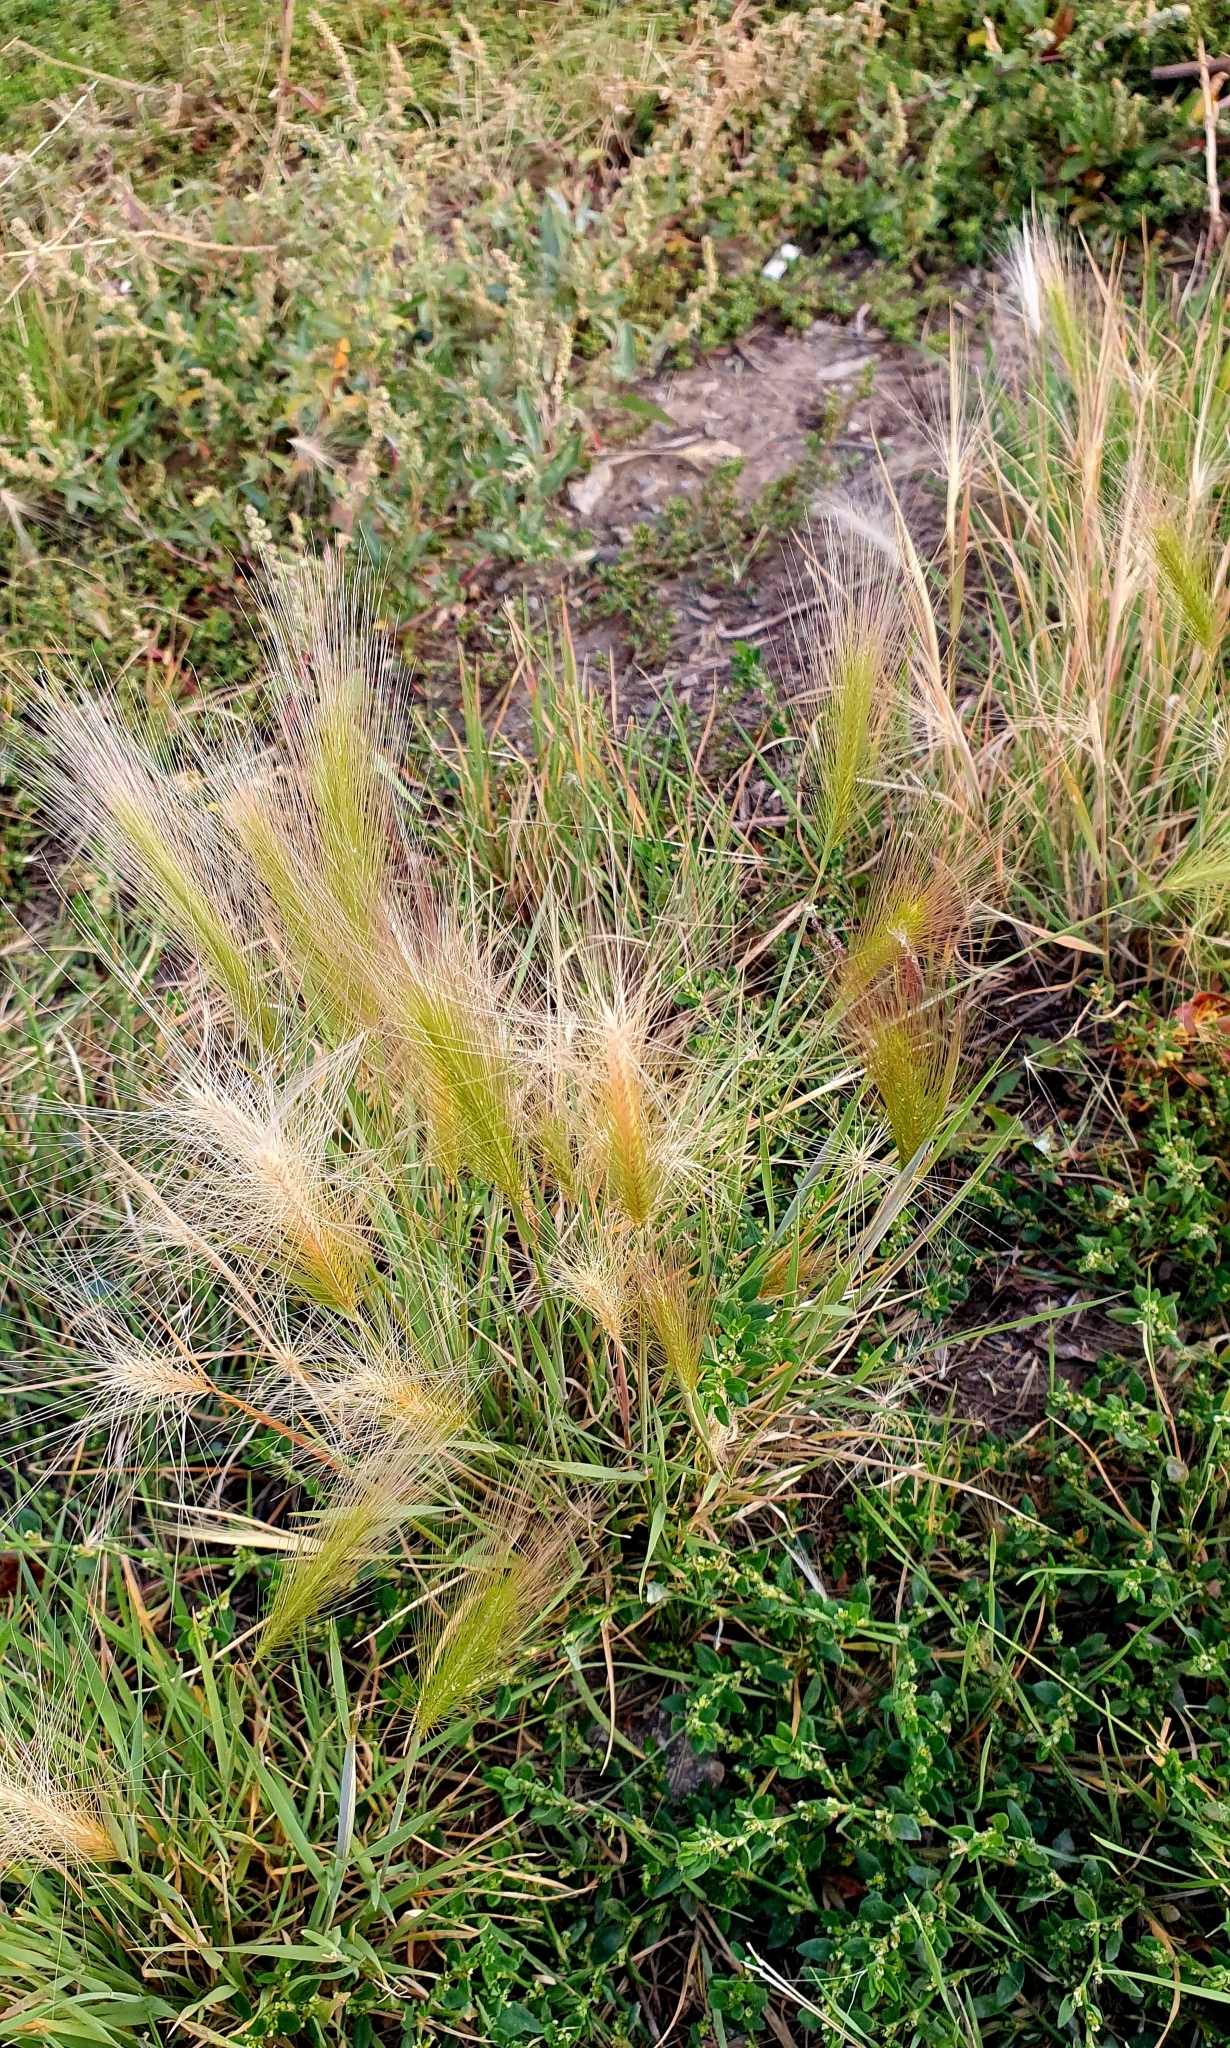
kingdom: Plantae
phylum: Tracheophyta
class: Liliopsida
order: Poales
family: Poaceae
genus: Hordeum
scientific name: Hordeum jubatum
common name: Foxtail barley
